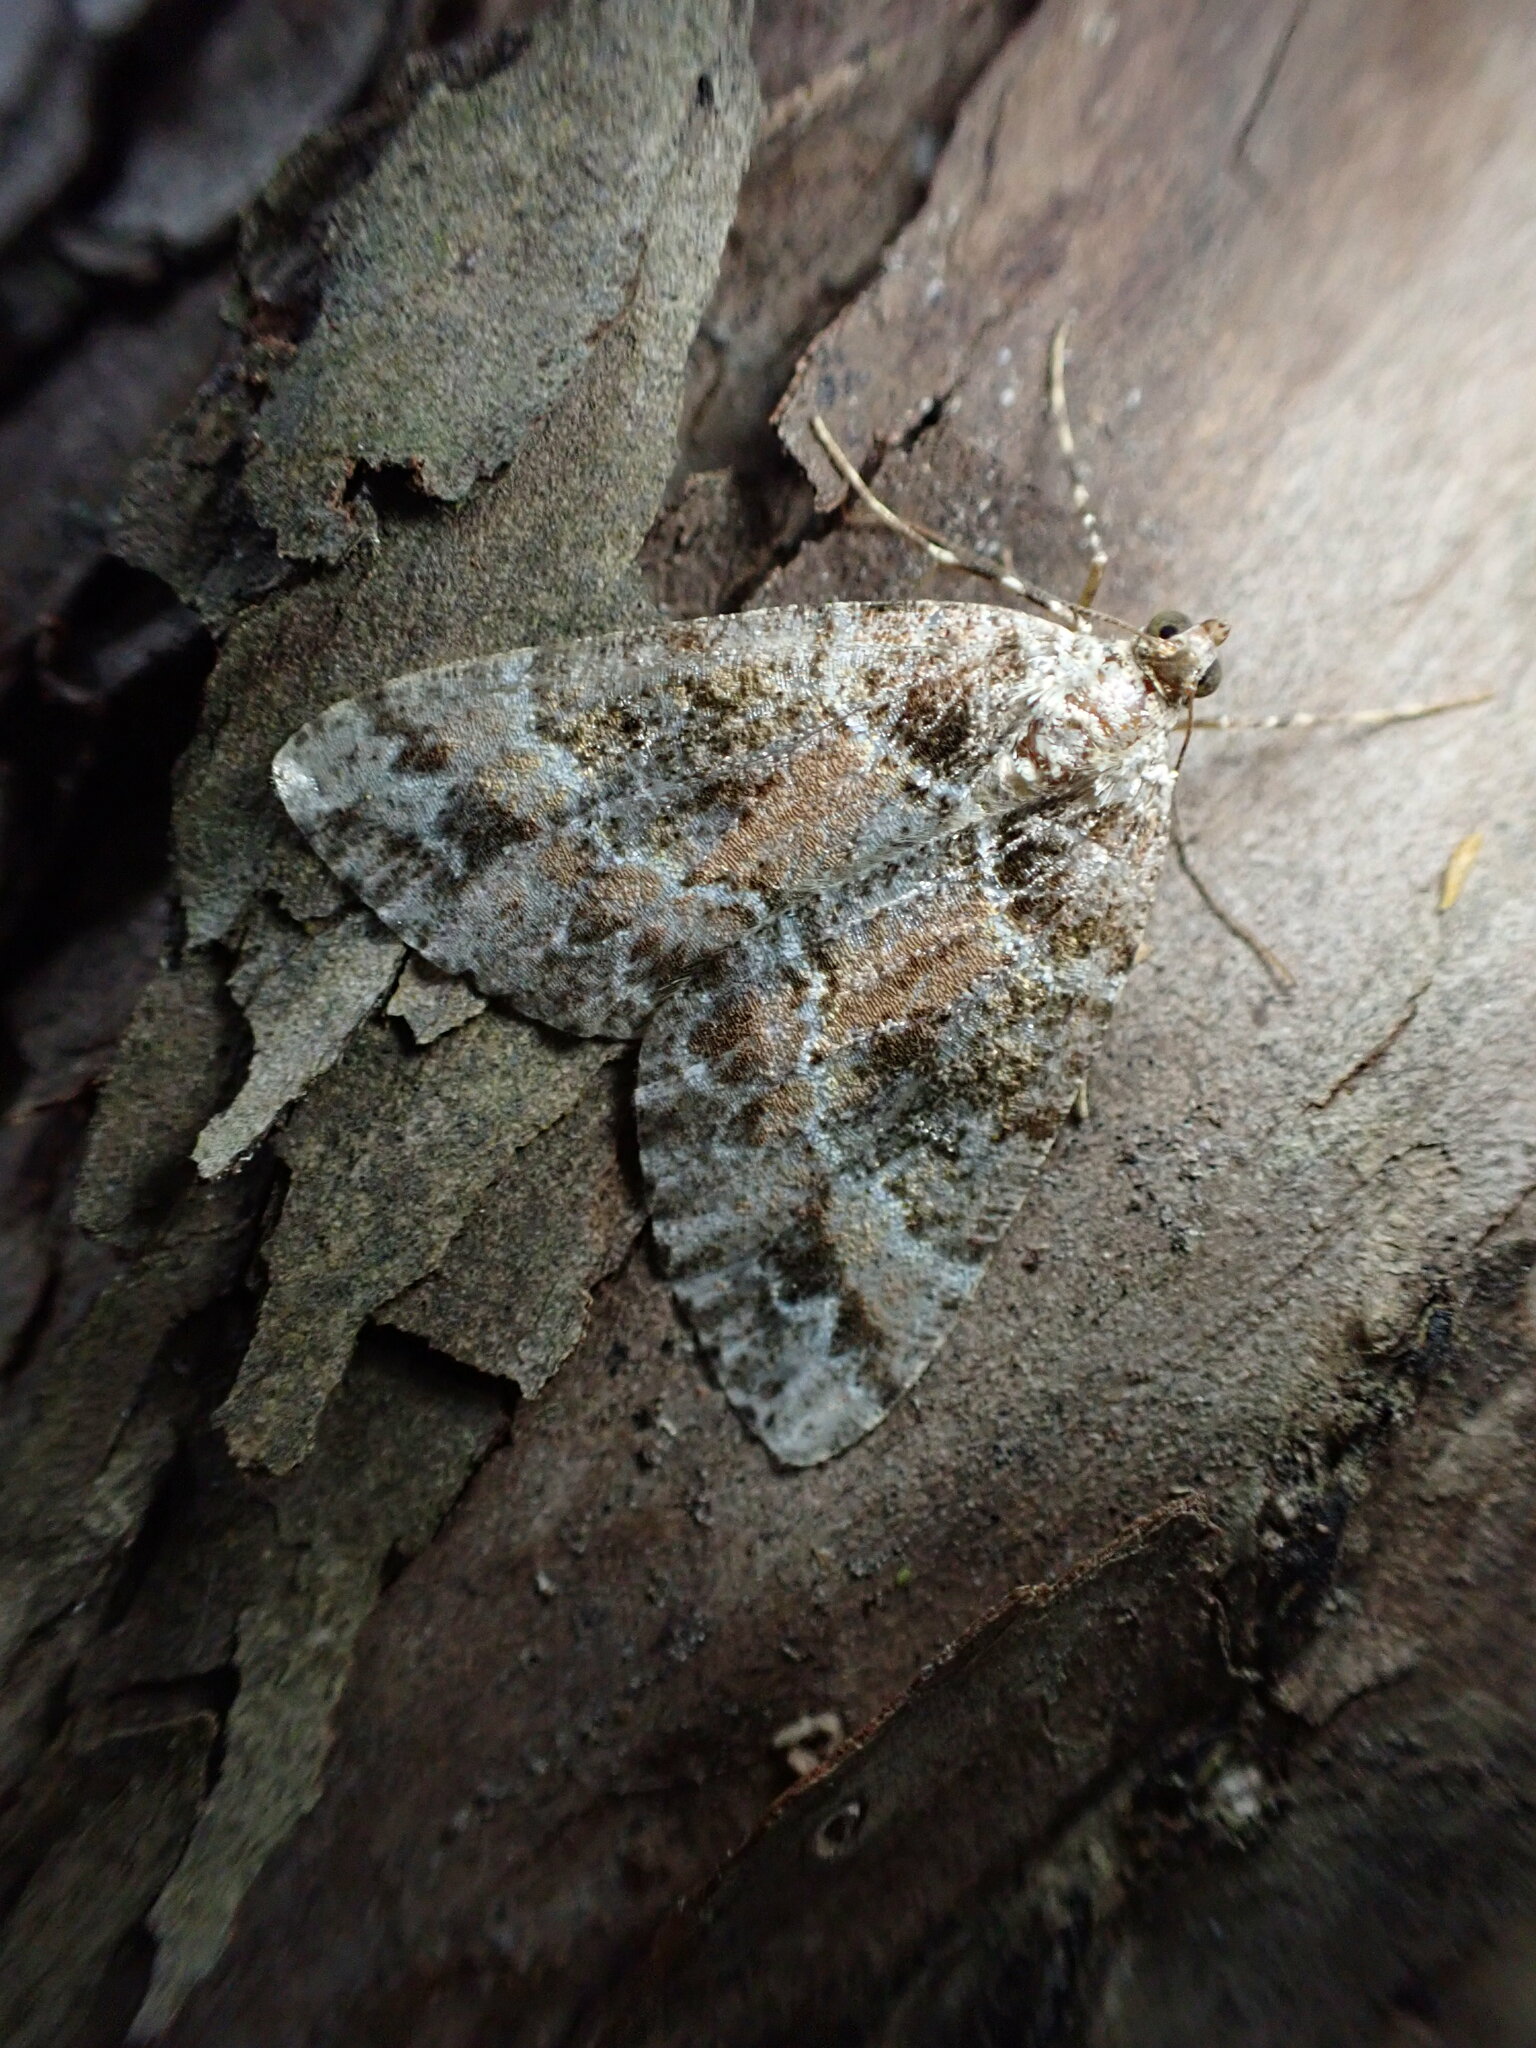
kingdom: Animalia
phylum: Arthropoda
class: Insecta
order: Lepidoptera
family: Geometridae
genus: Pseudocoremia
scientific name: Pseudocoremia productata
